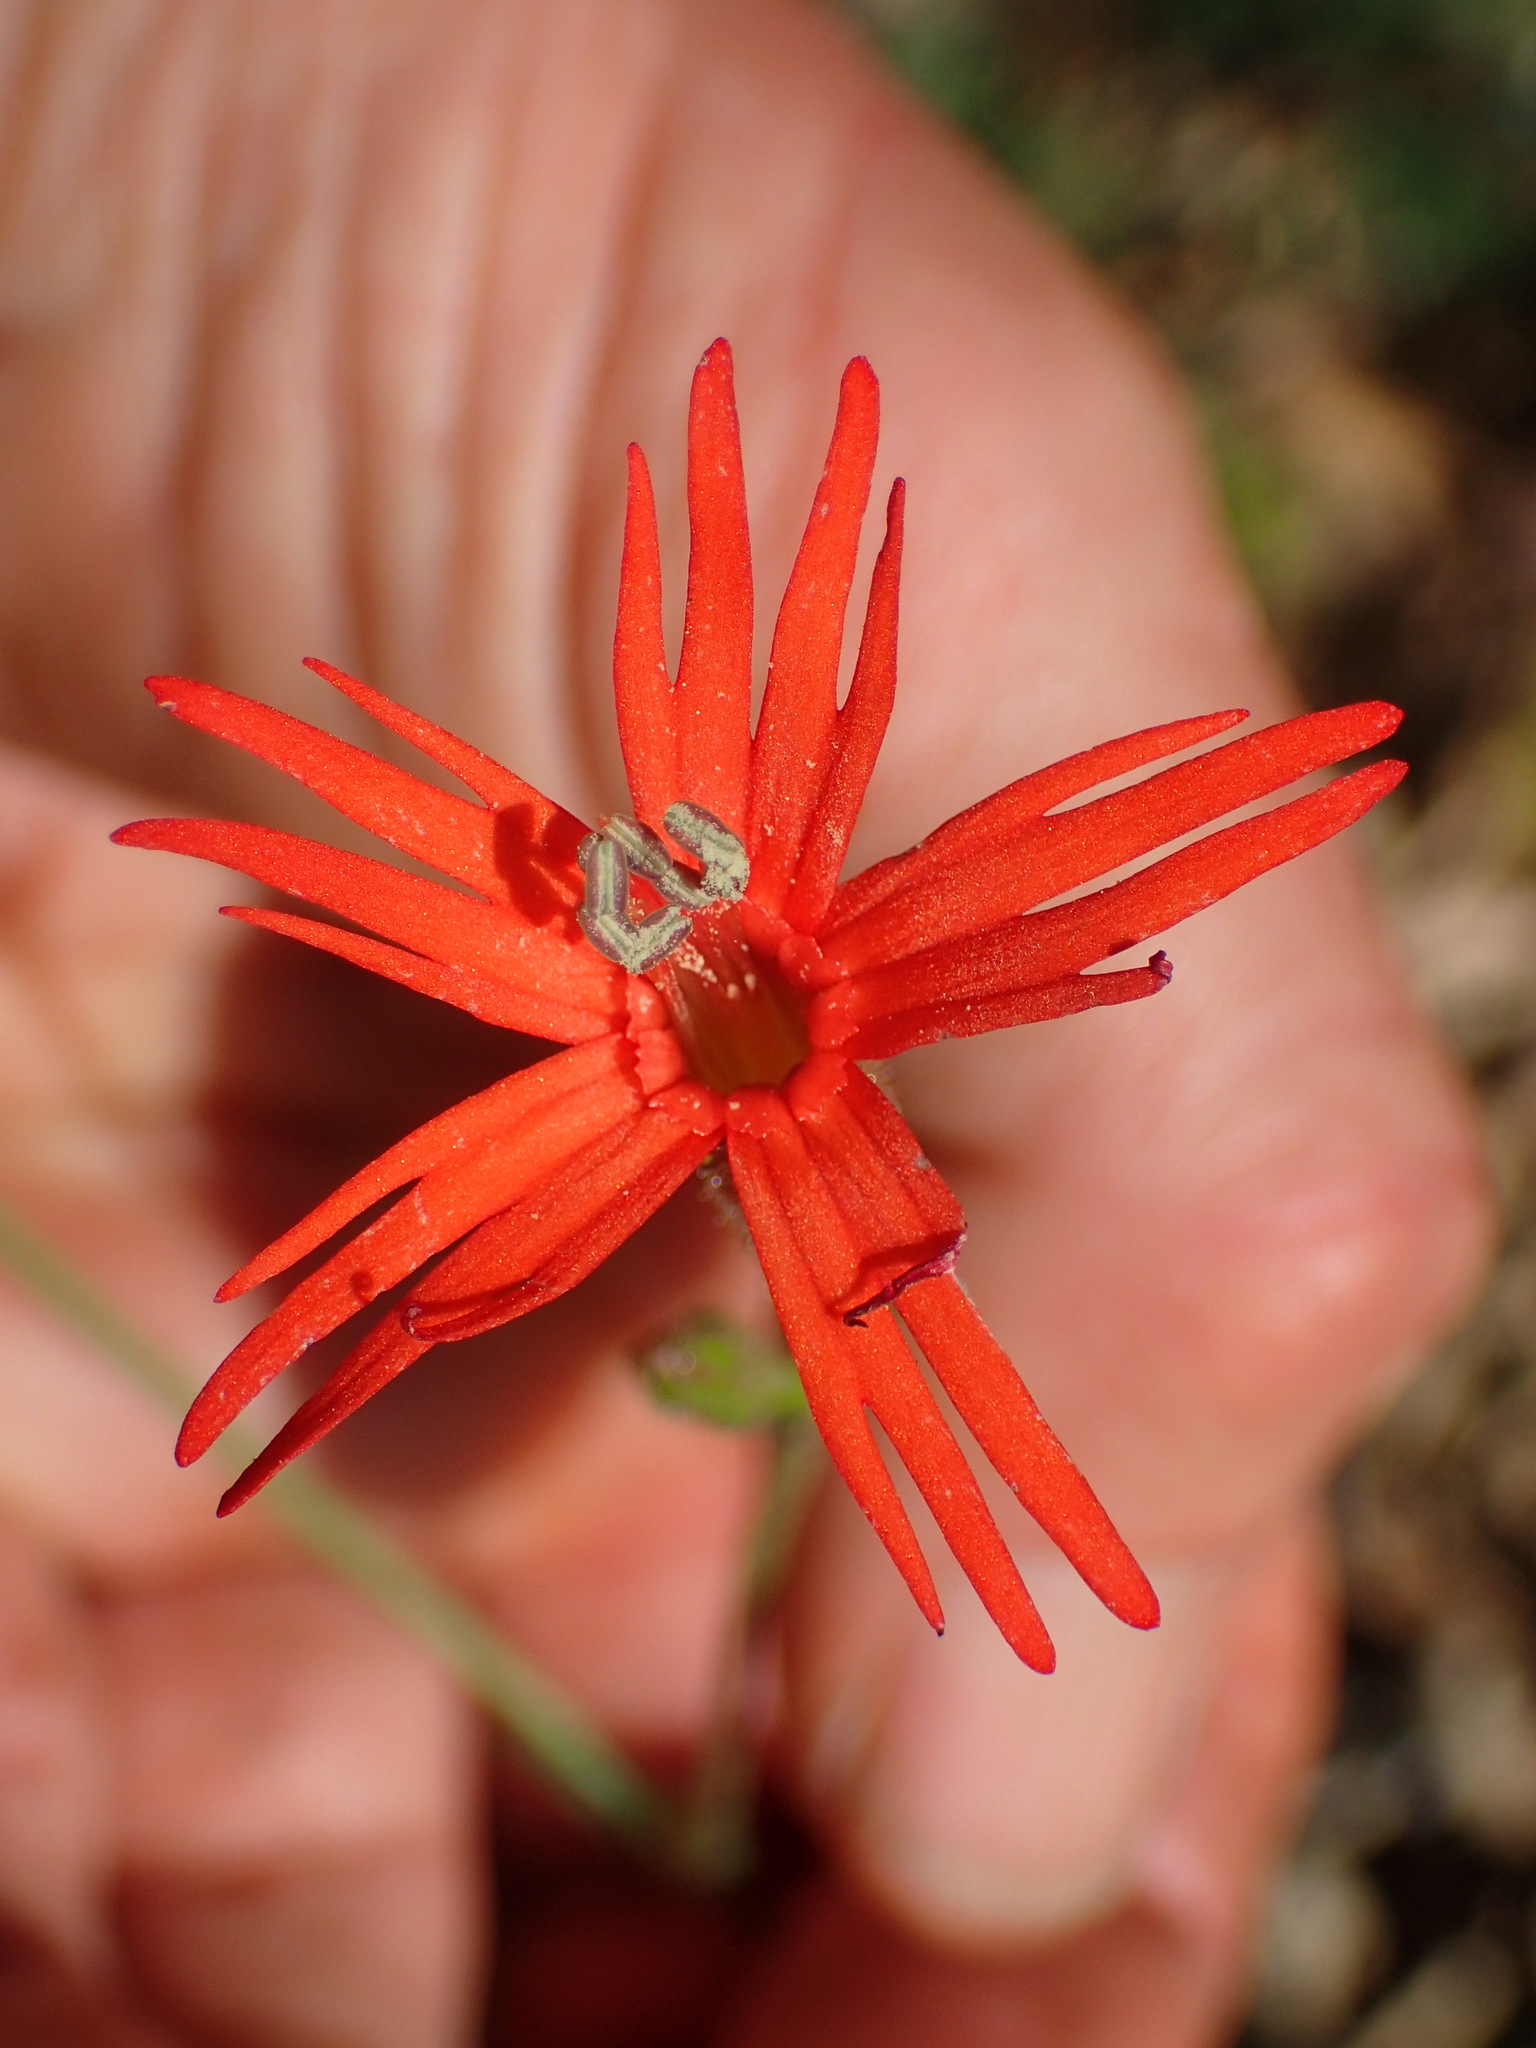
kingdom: Plantae
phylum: Tracheophyta
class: Magnoliopsida
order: Caryophyllales
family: Caryophyllaceae
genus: Silene
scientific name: Silene laciniata
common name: Indian-pink
